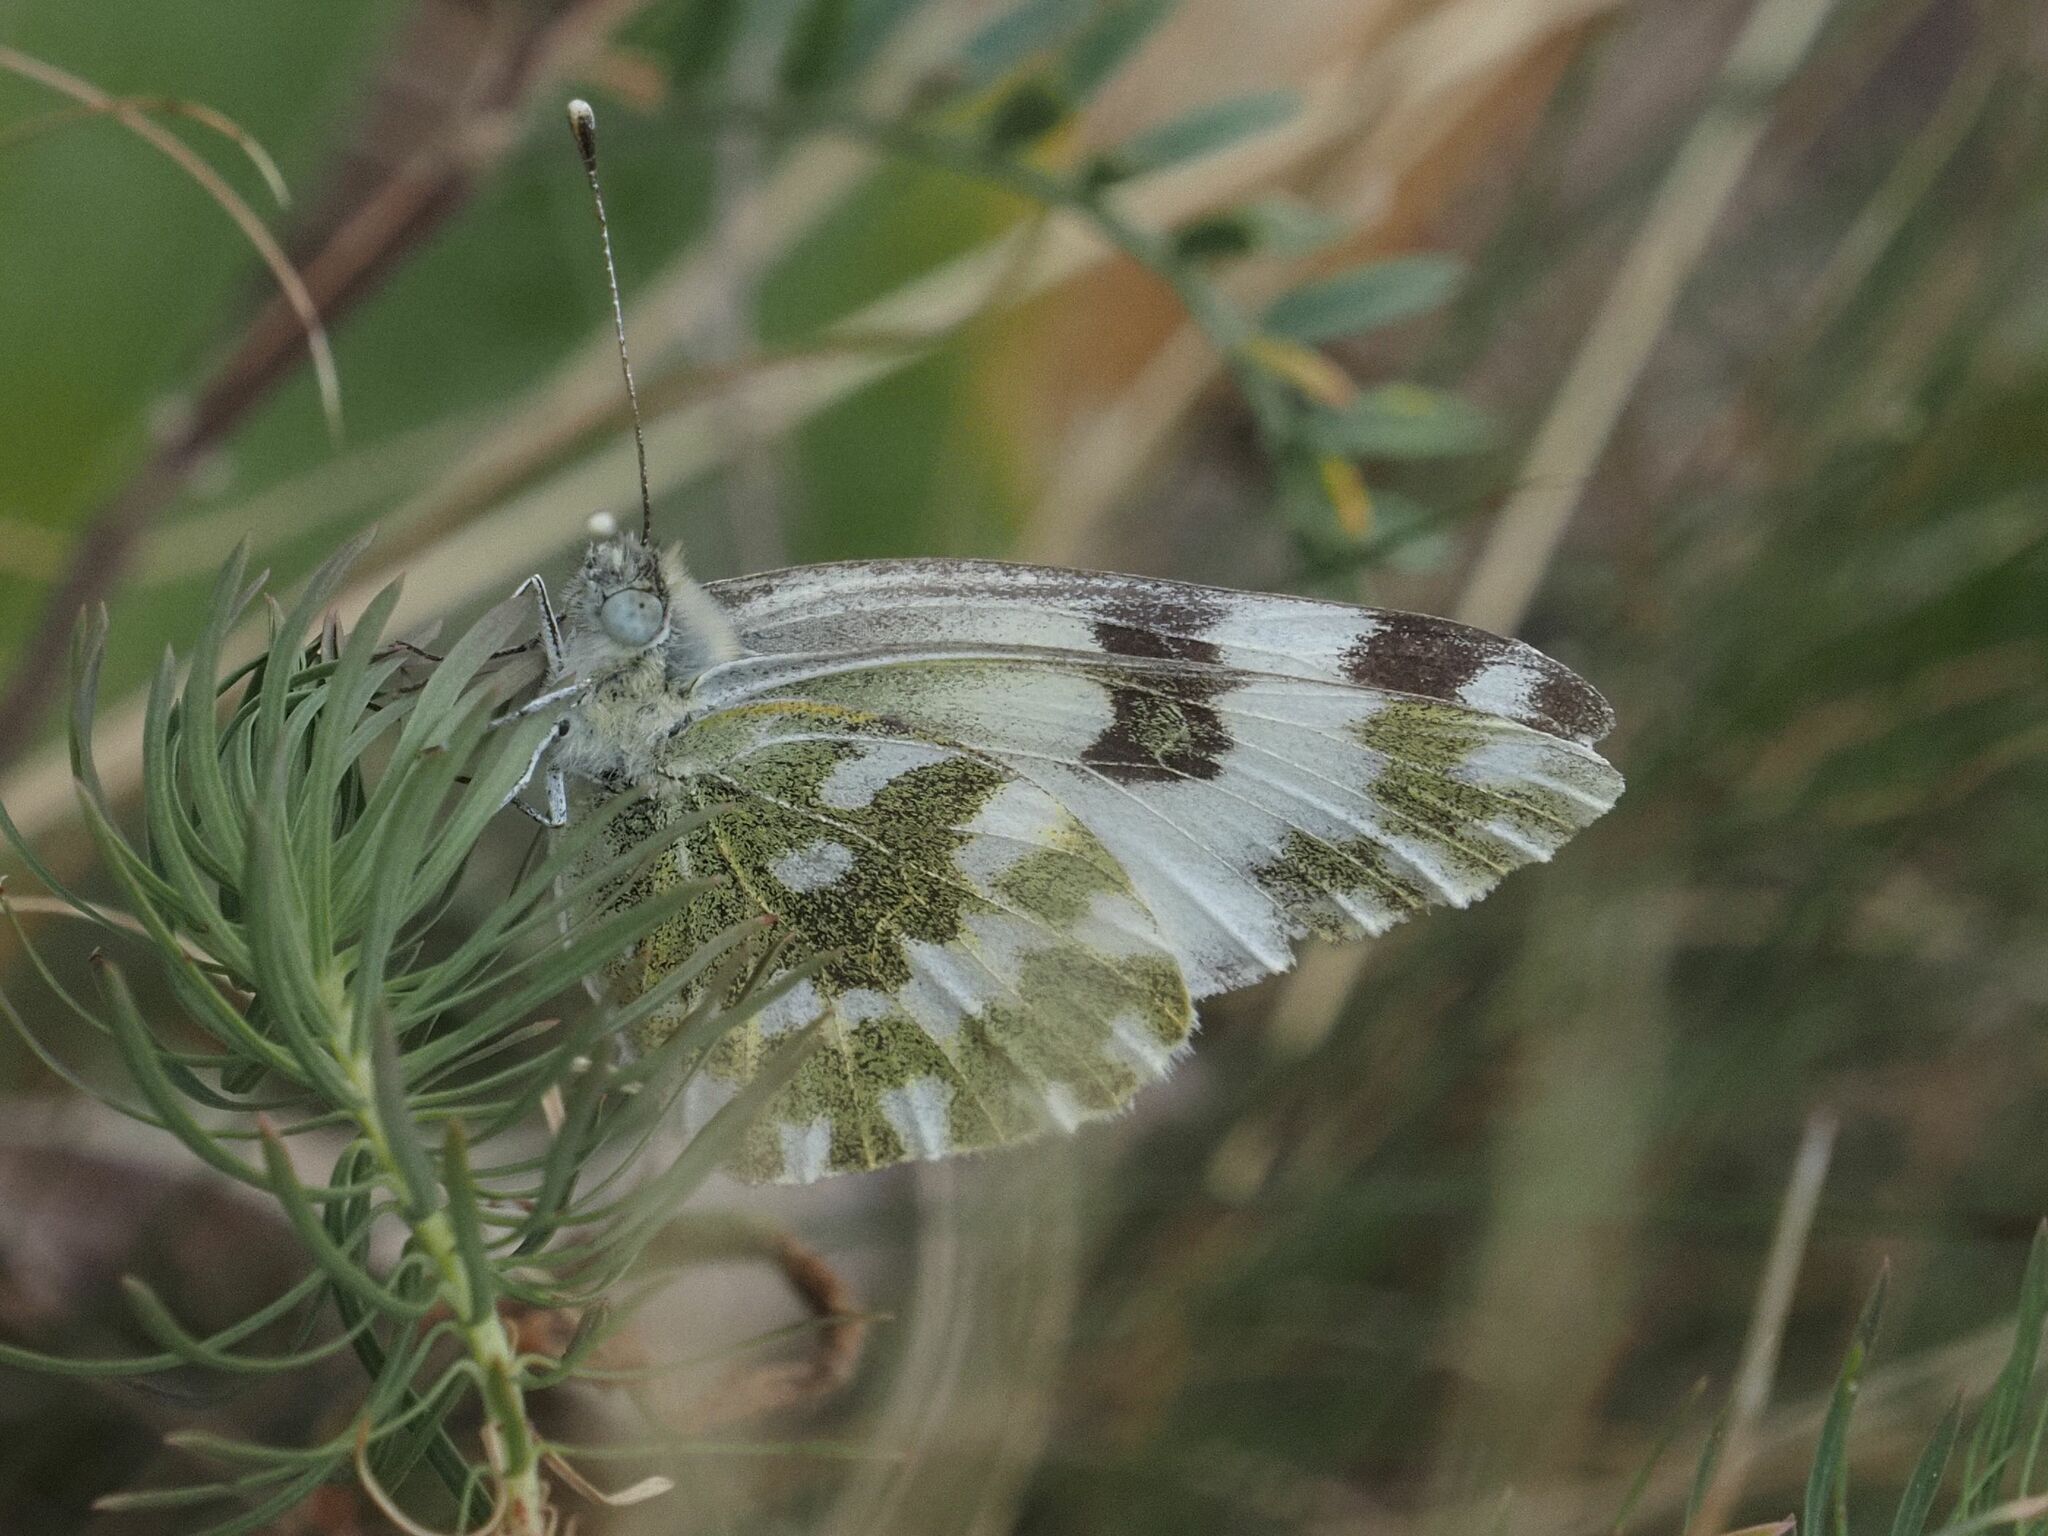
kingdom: Animalia
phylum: Arthropoda
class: Insecta
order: Lepidoptera
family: Pieridae
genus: Pontia
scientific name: Pontia edusa
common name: Eastern bath white
